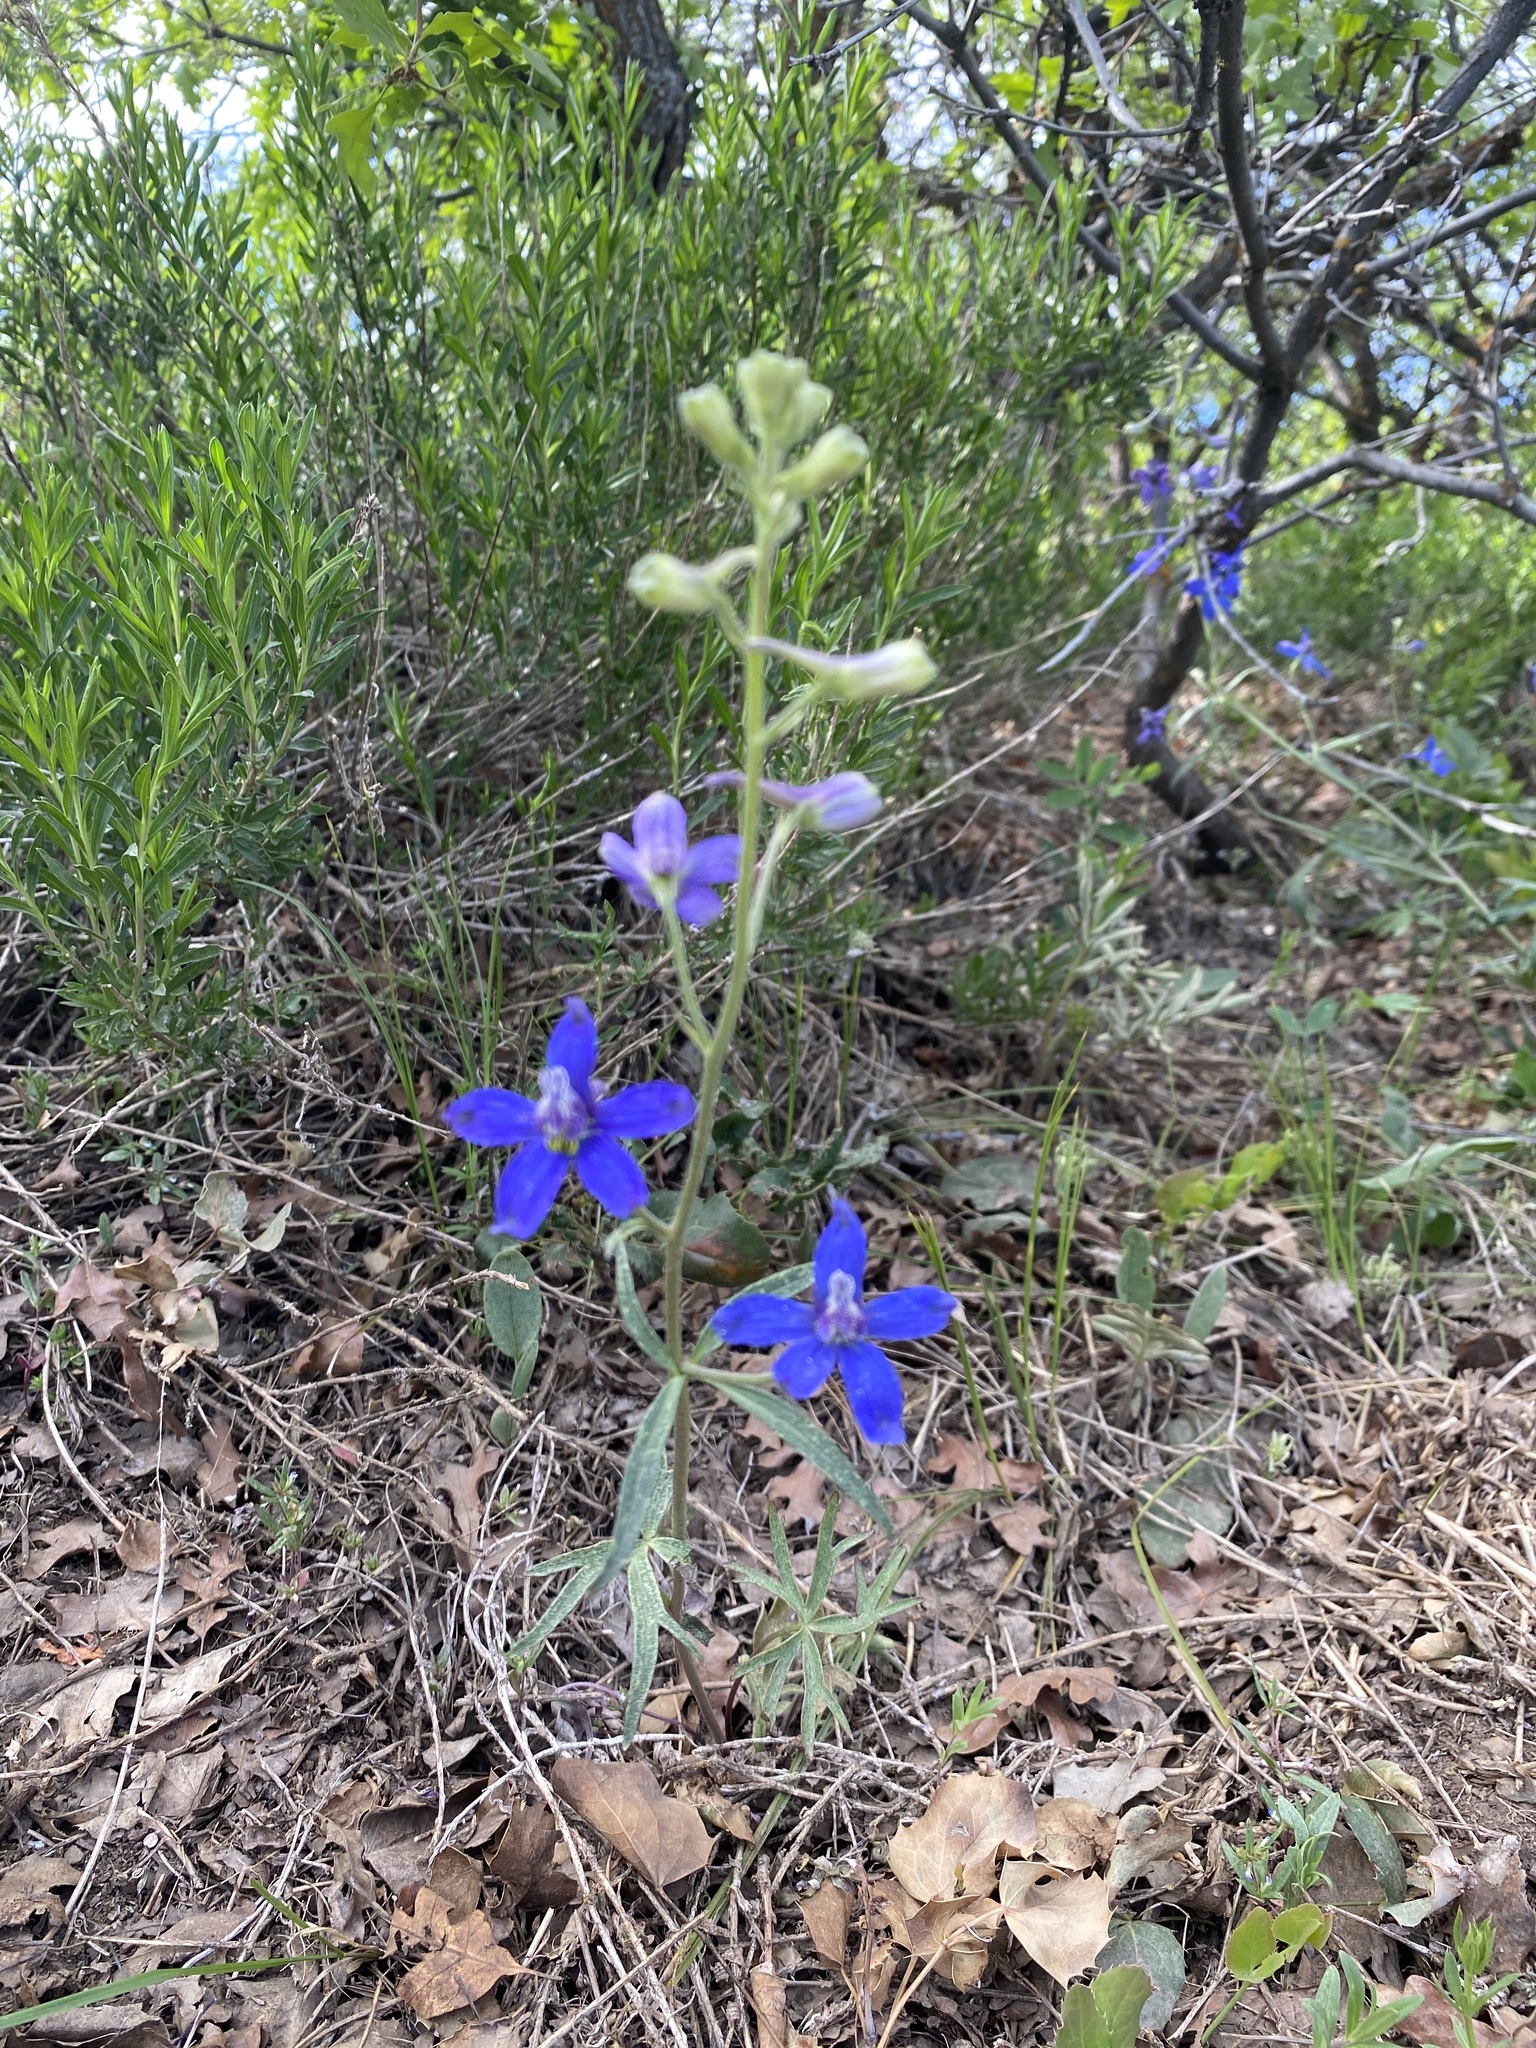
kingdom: Plantae
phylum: Tracheophyta
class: Magnoliopsida
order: Ranunculales
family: Ranunculaceae
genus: Delphinium
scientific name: Delphinium nuttallianum
